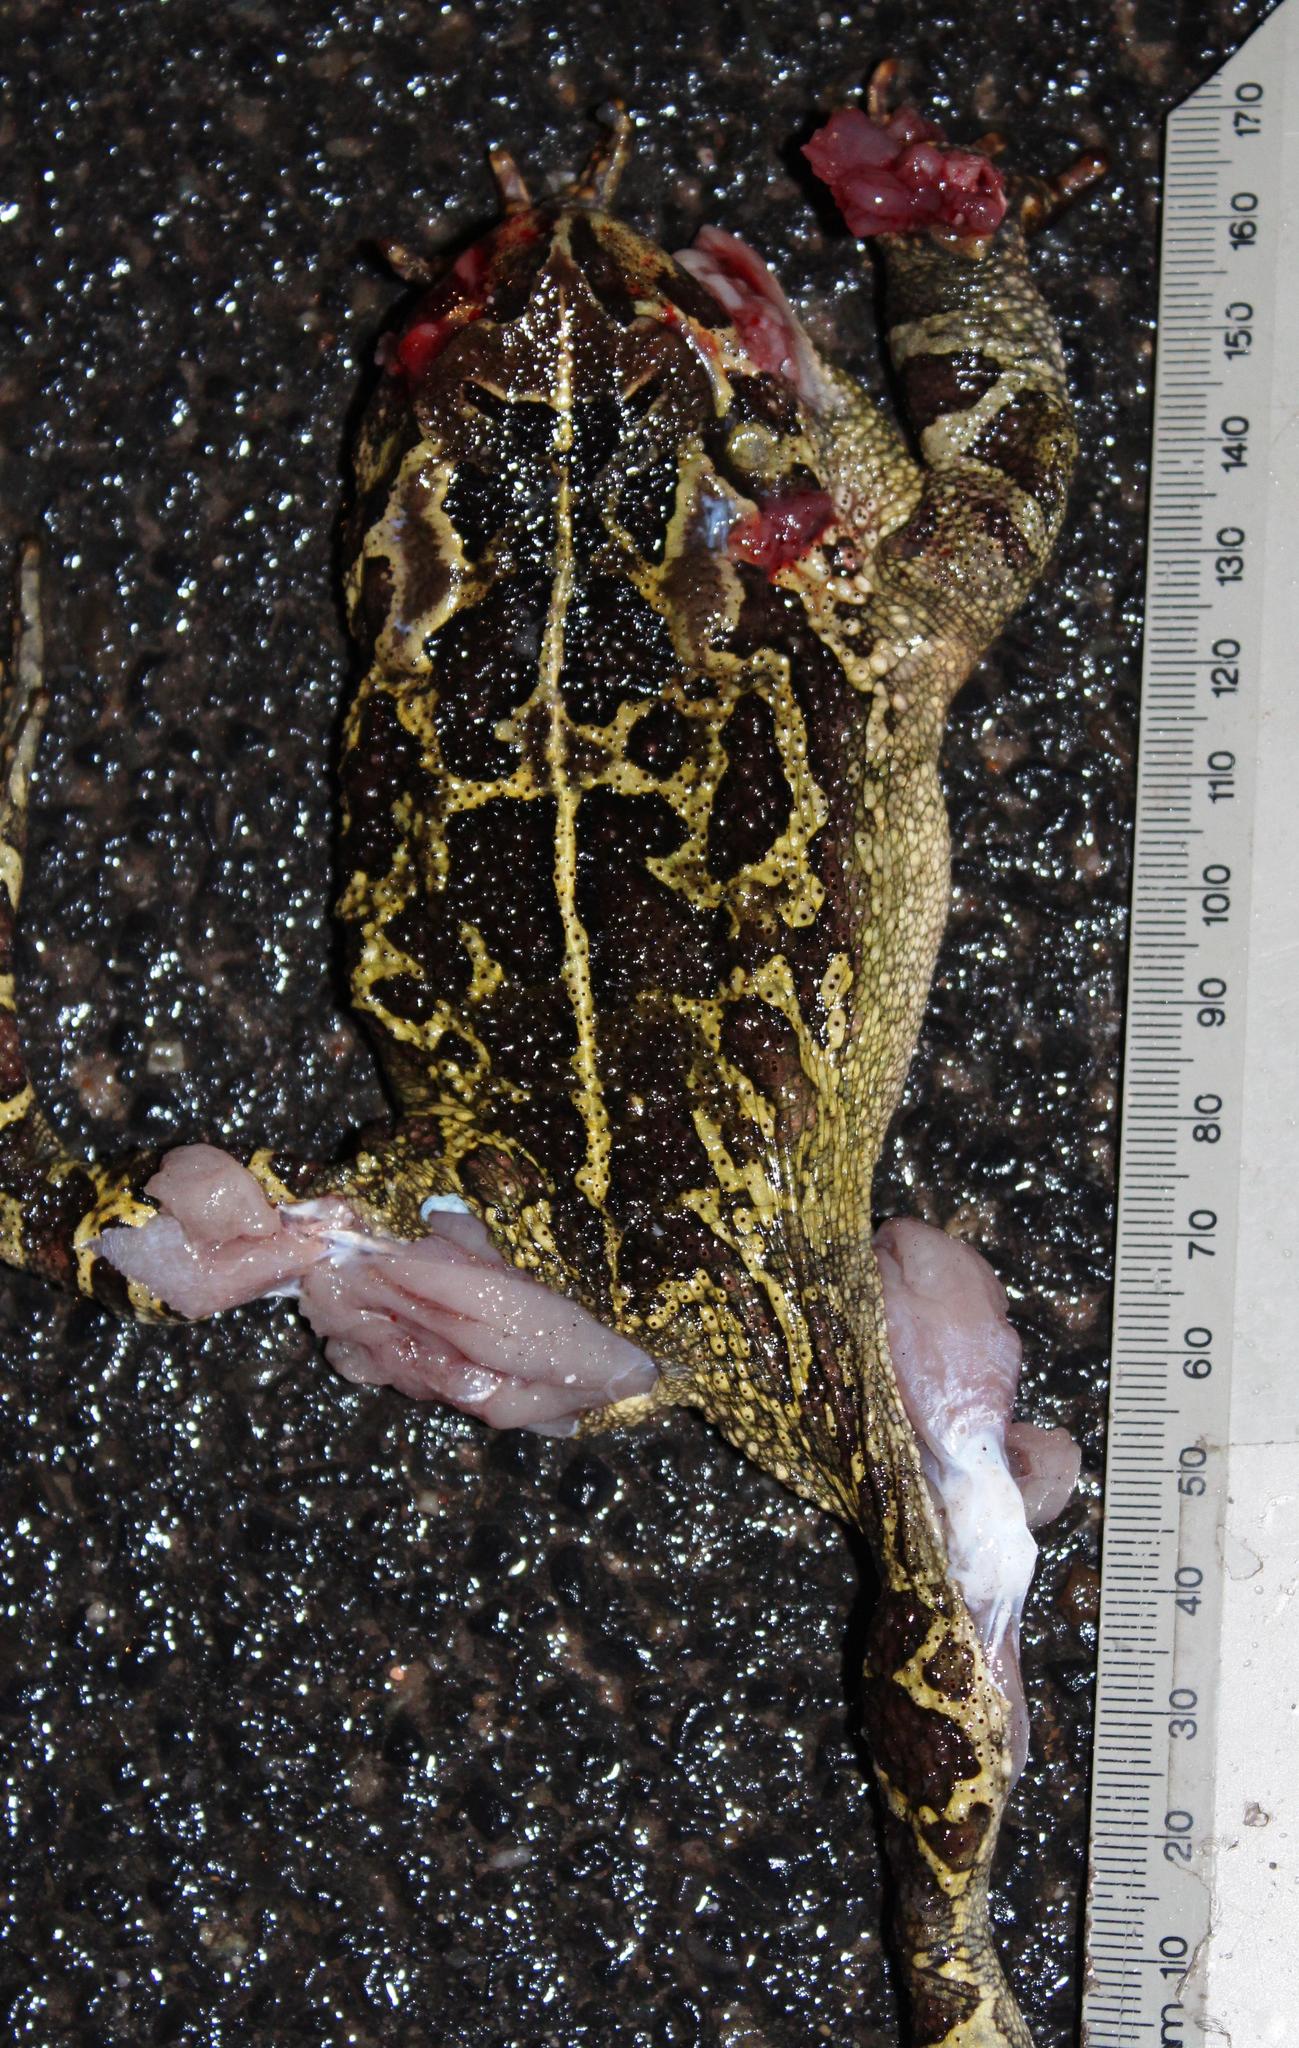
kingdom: Animalia
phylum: Chordata
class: Amphibia
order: Anura
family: Bufonidae
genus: Sclerophrys
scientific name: Sclerophrys pantherina
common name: Panther toad
